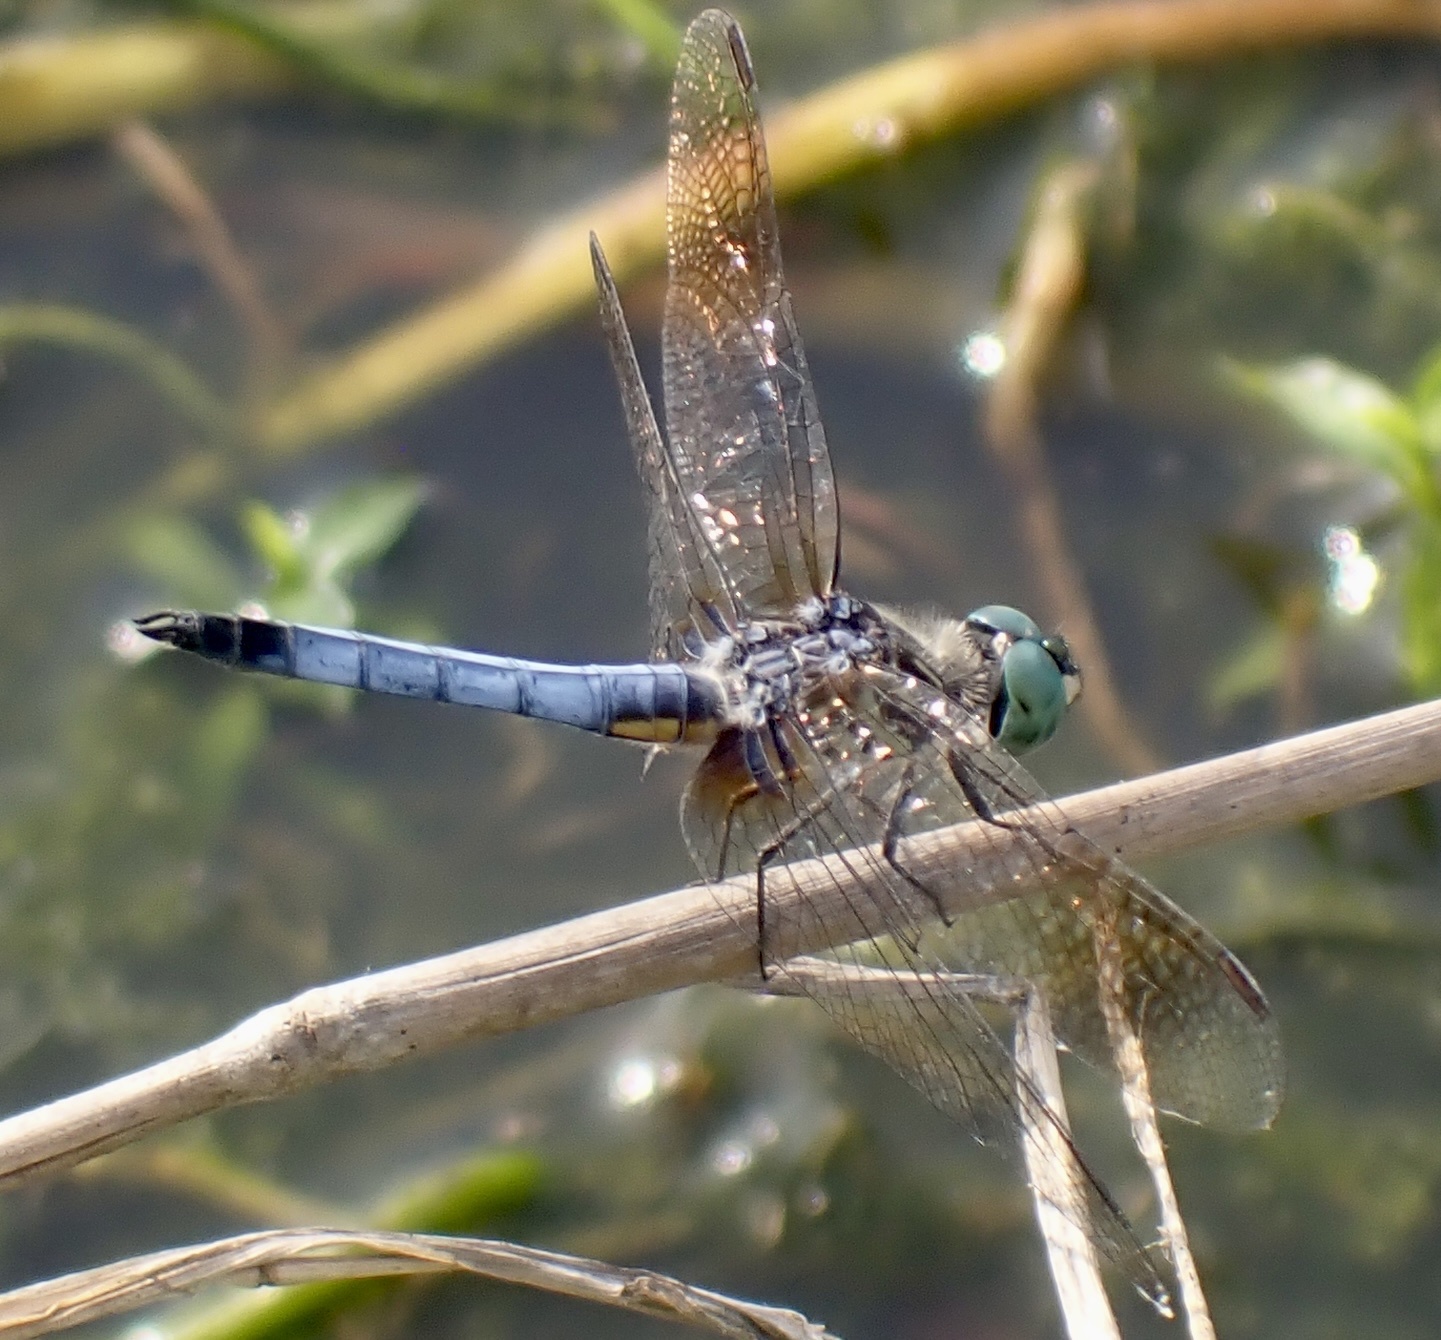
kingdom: Animalia
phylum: Arthropoda
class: Insecta
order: Odonata
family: Libellulidae
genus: Pachydiplax
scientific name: Pachydiplax longipennis
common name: Blue dasher
